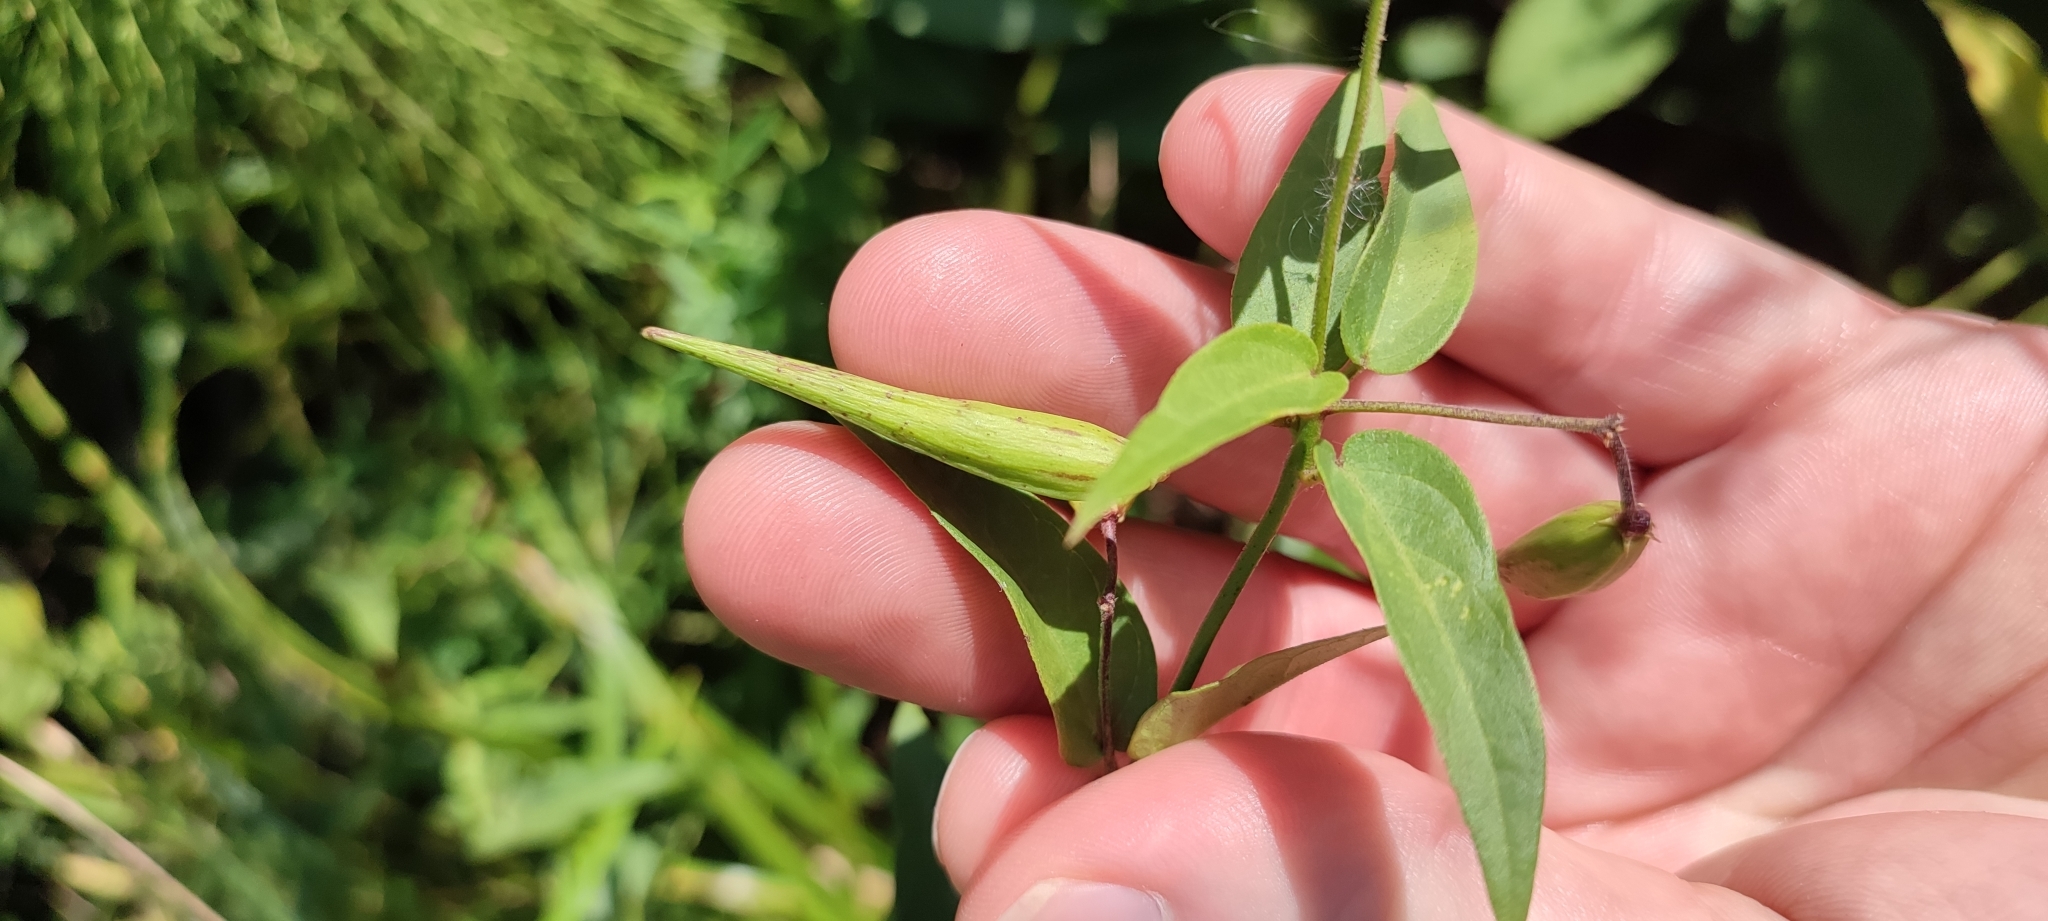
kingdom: Plantae
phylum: Tracheophyta
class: Magnoliopsida
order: Gentianales
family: Apocynaceae
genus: Vincetoxicum
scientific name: Vincetoxicum hirundinaria
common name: White swallowwort
